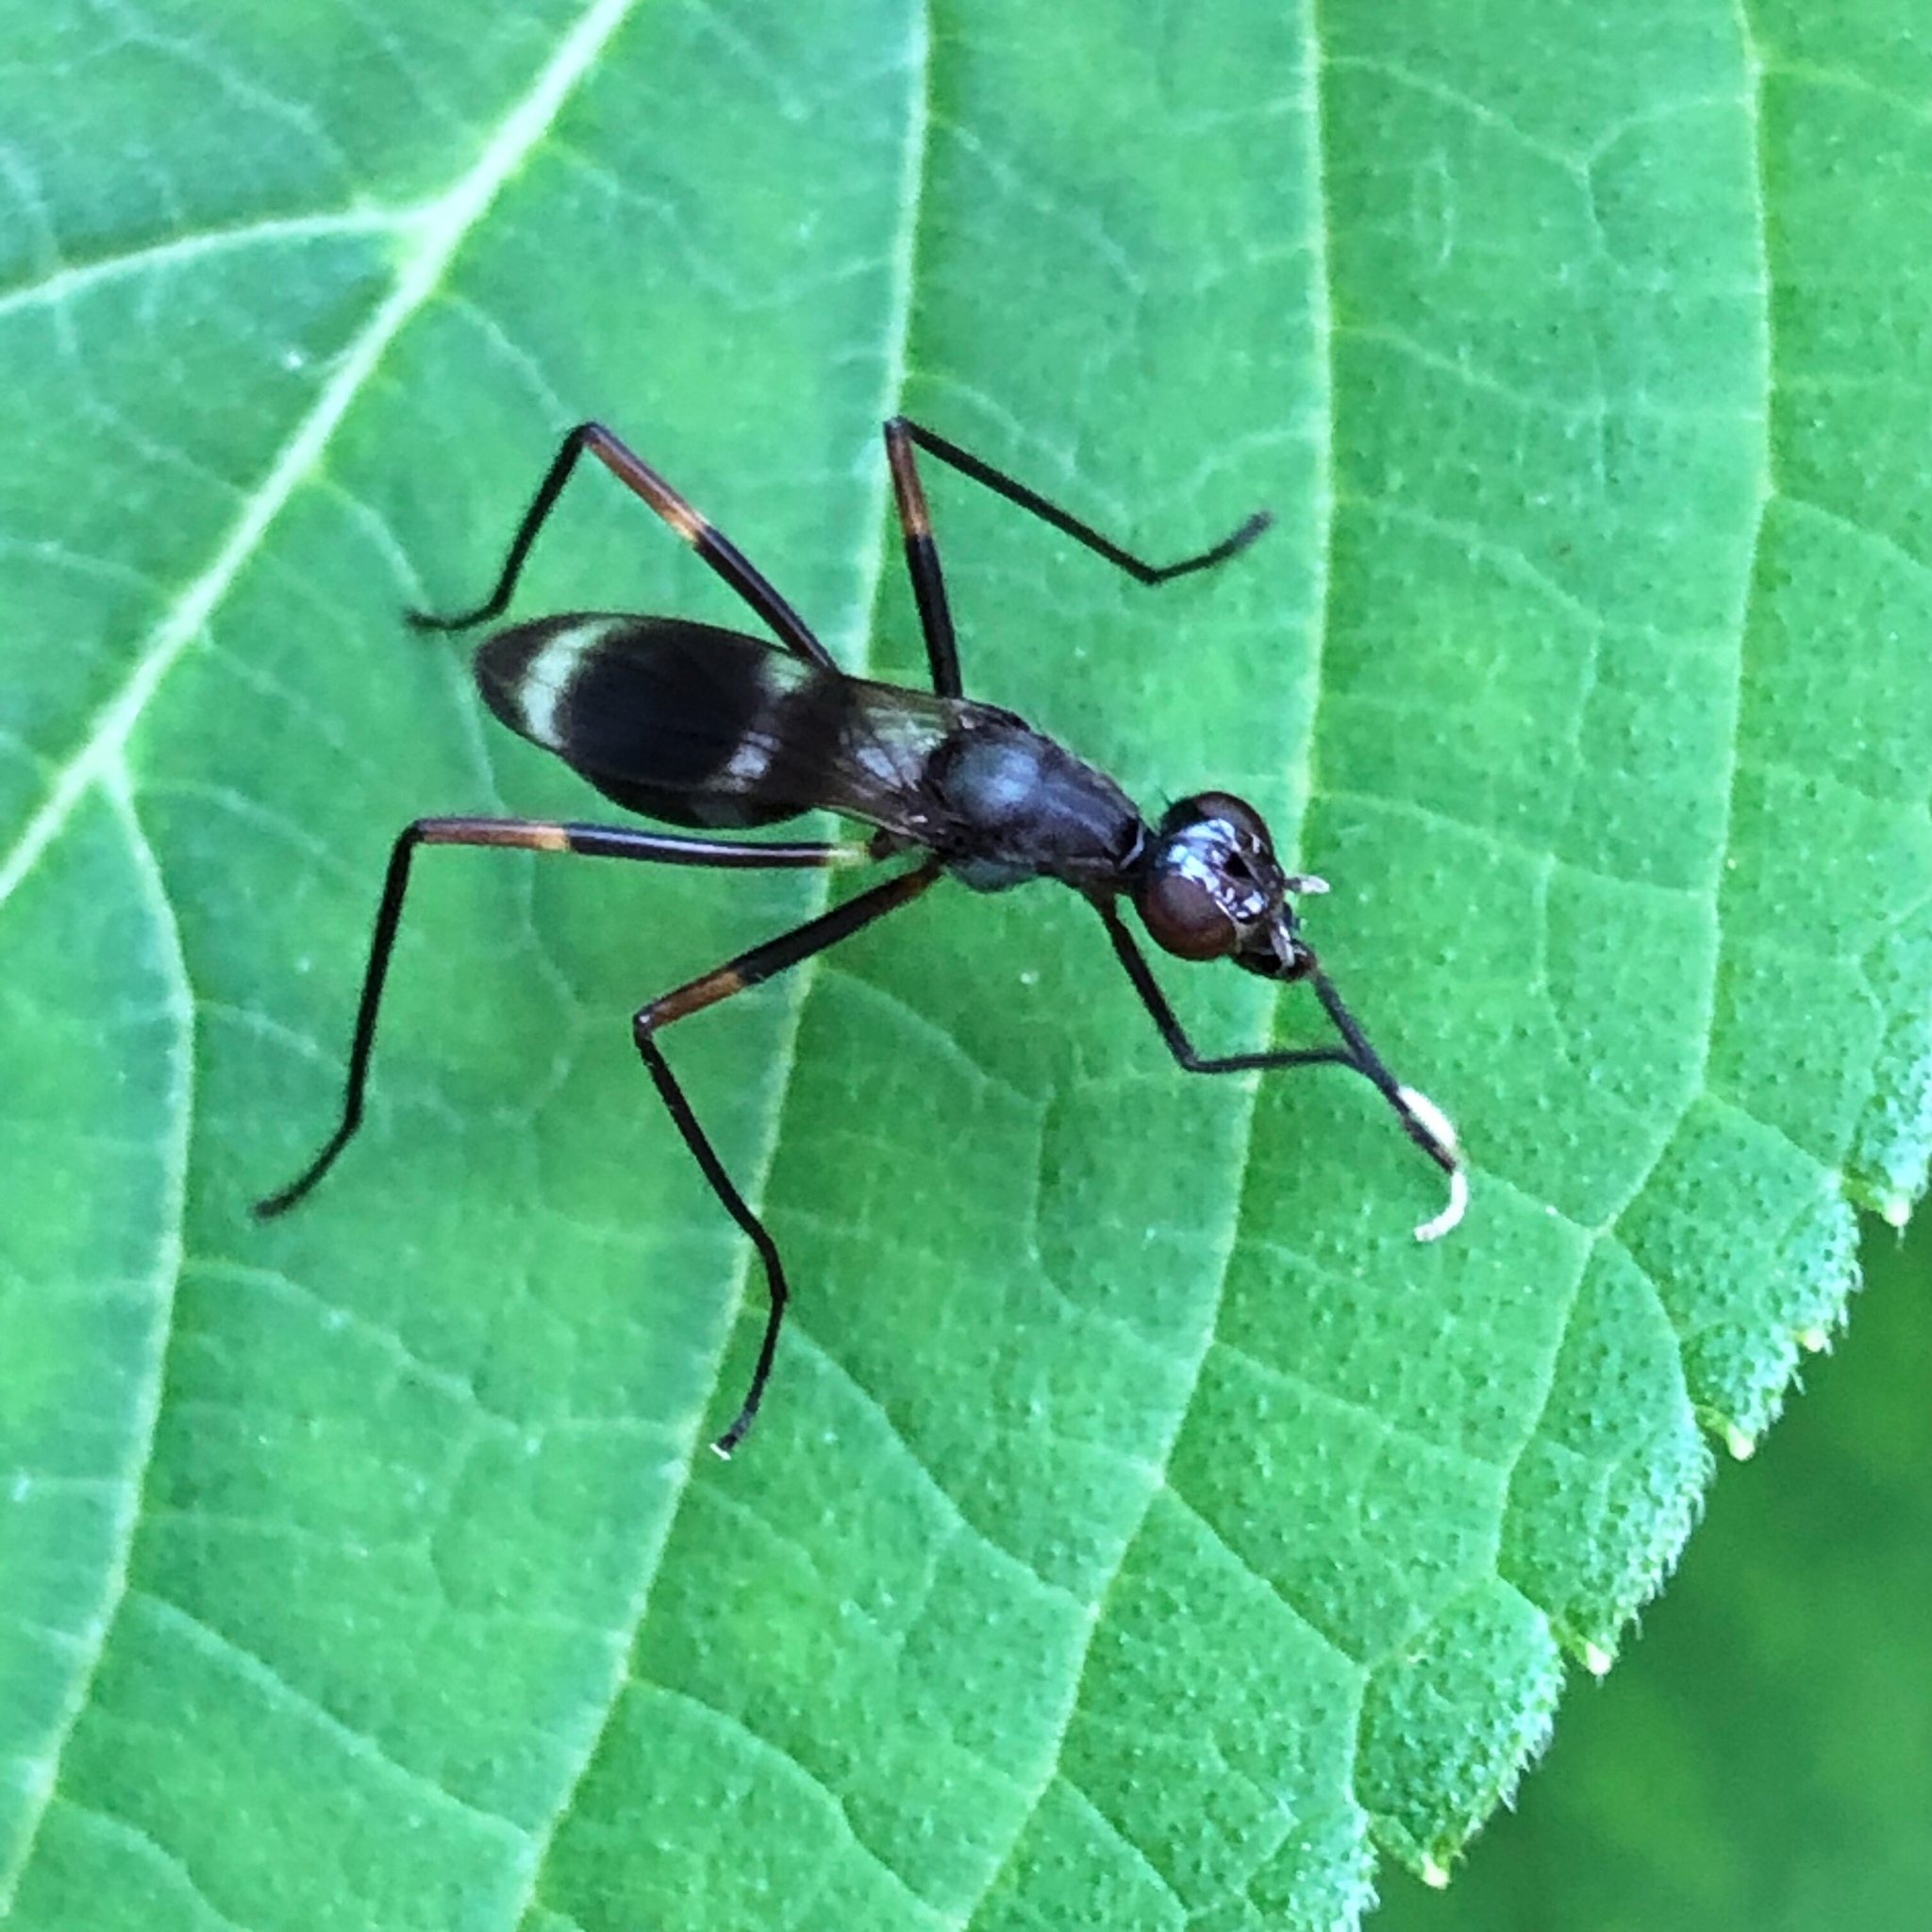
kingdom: Animalia
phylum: Arthropoda
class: Insecta
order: Diptera
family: Micropezidae
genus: Taeniaptera
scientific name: Taeniaptera trivittata
